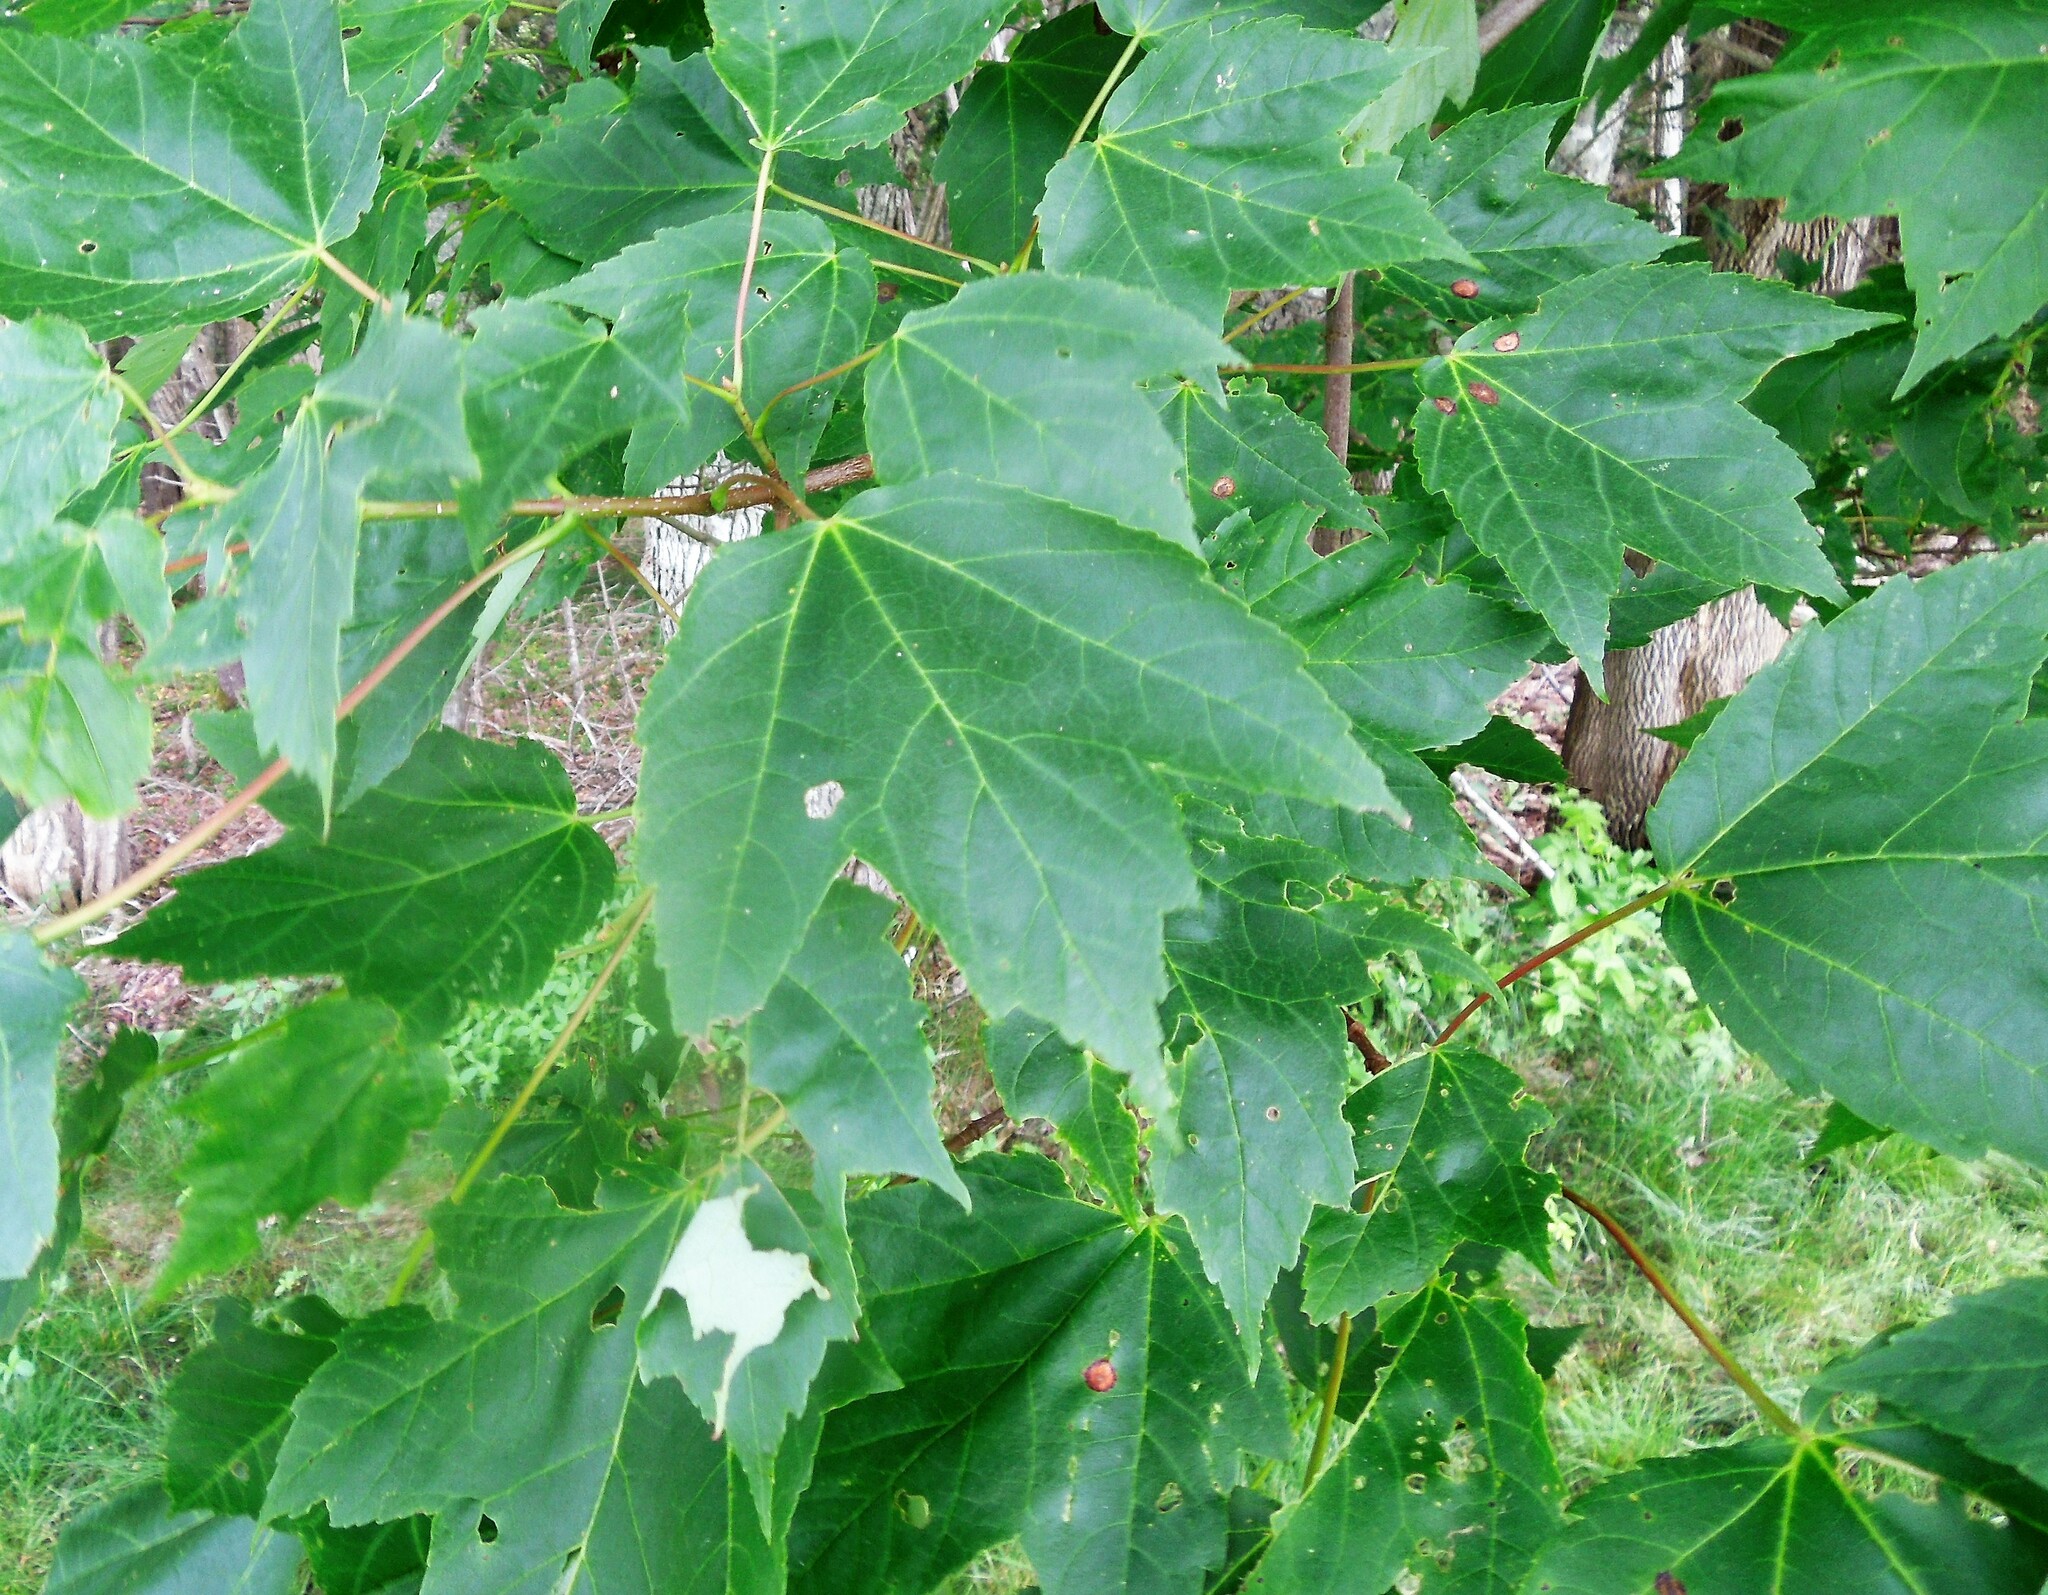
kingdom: Plantae
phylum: Tracheophyta
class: Magnoliopsida
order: Sapindales
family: Sapindaceae
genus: Acer
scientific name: Acer rubrum
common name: Red maple
